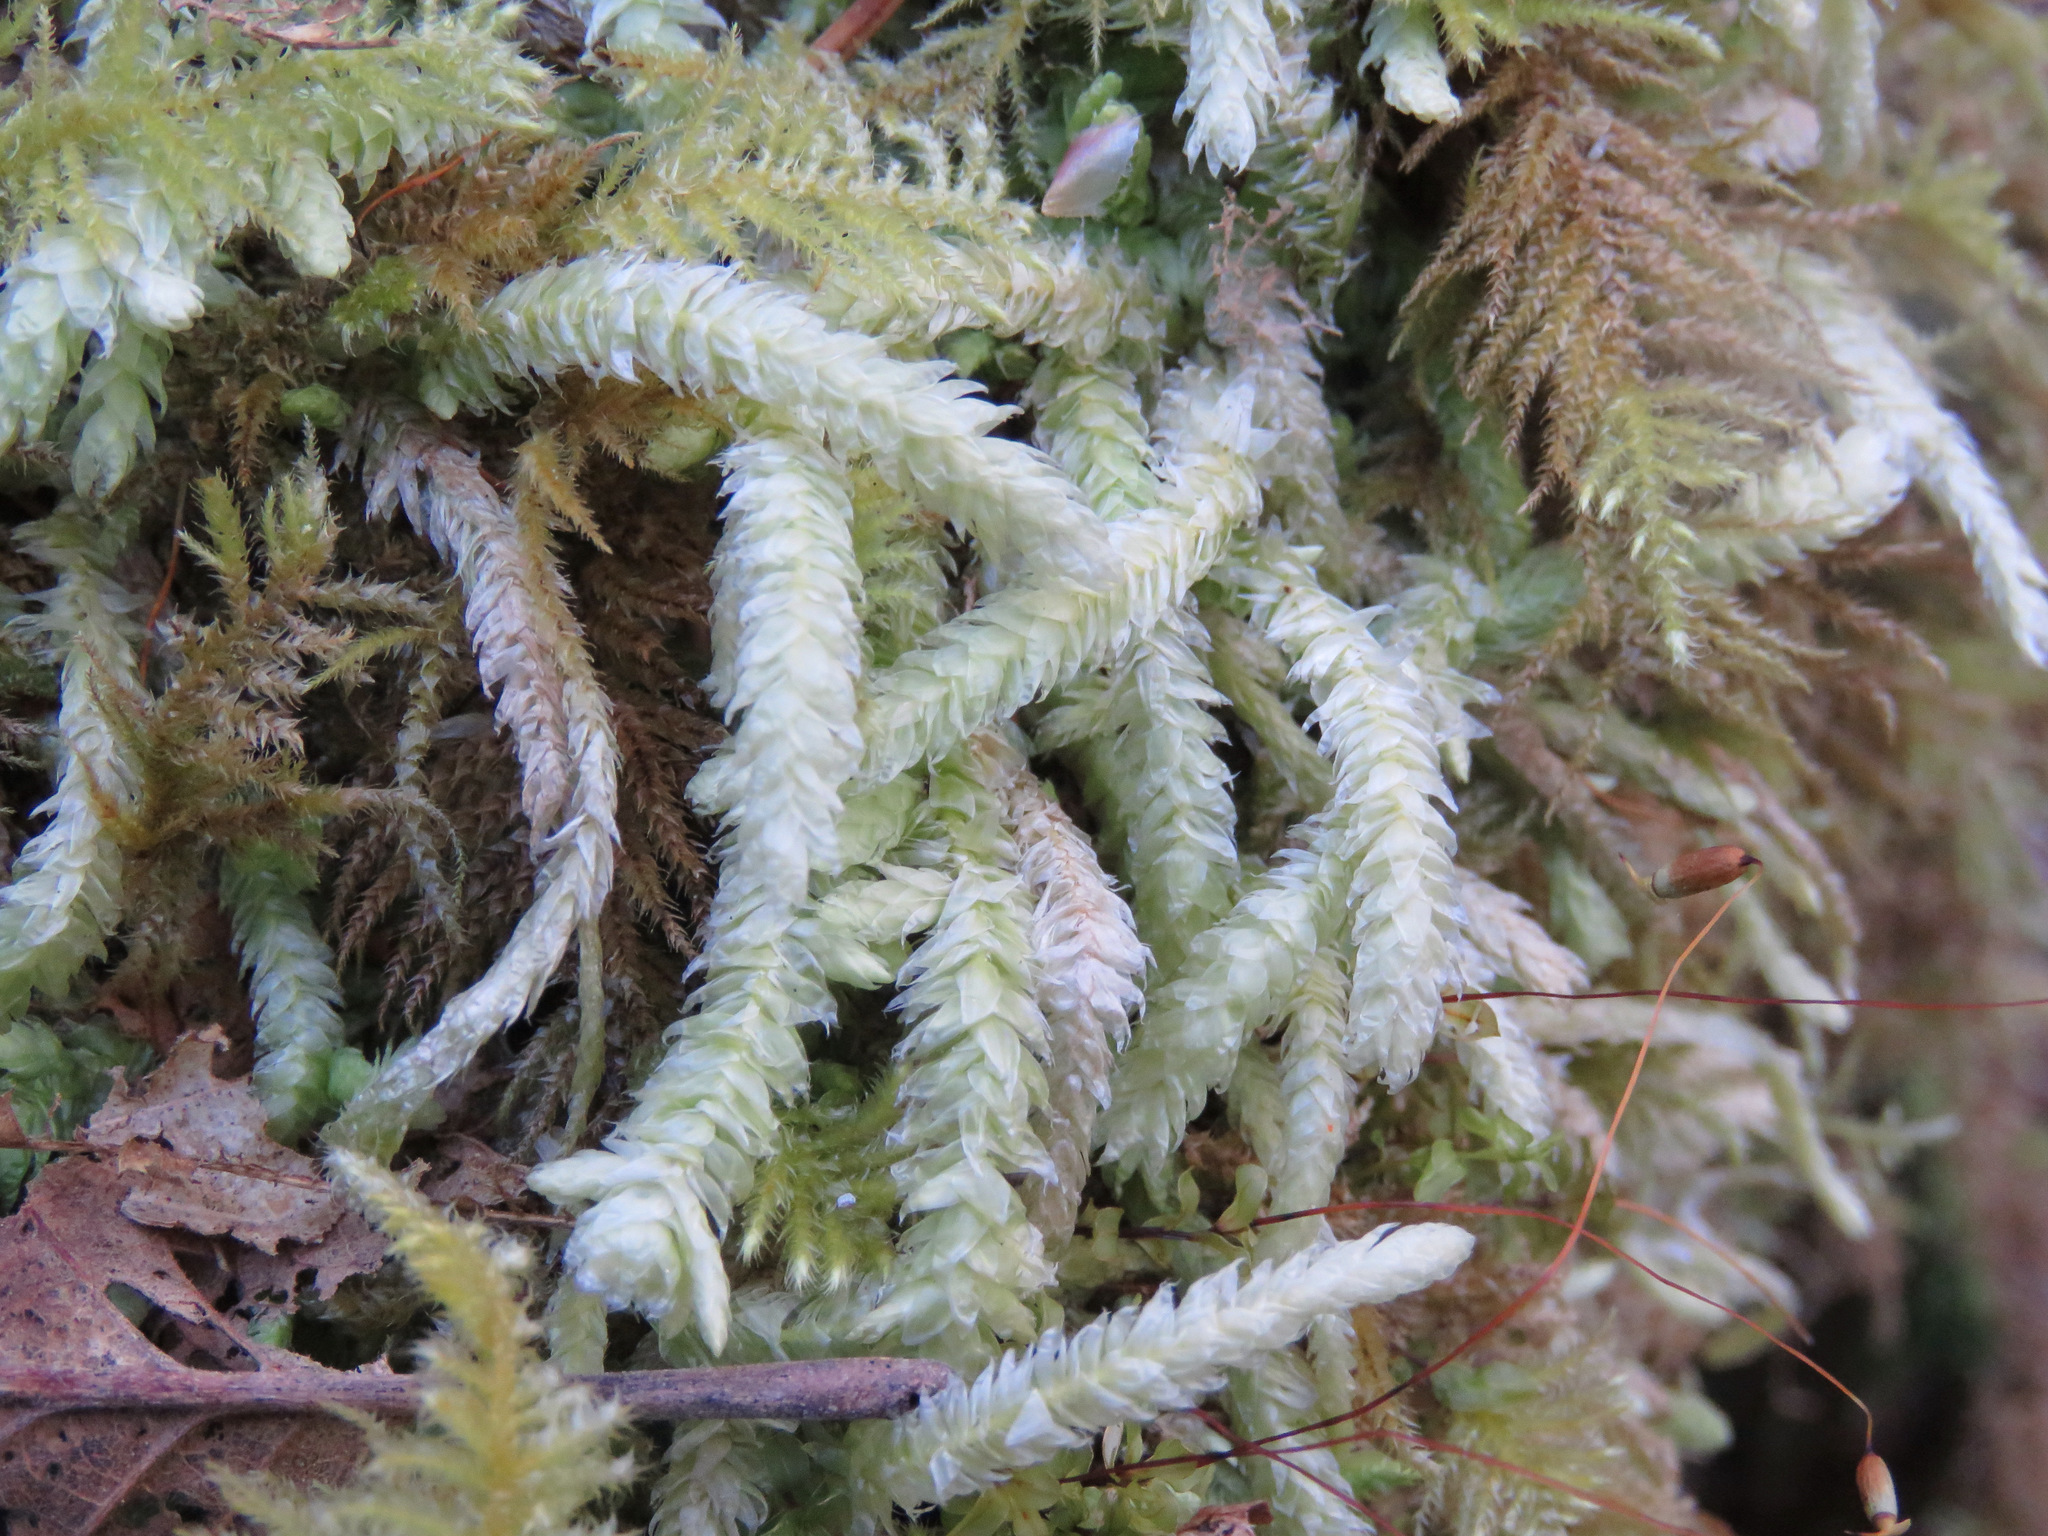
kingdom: Plantae
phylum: Bryophyta
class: Bryopsida
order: Hypnales
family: Plagiotheciaceae
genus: Plagiothecium
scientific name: Plagiothecium undulatum
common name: Waved silk-moss
